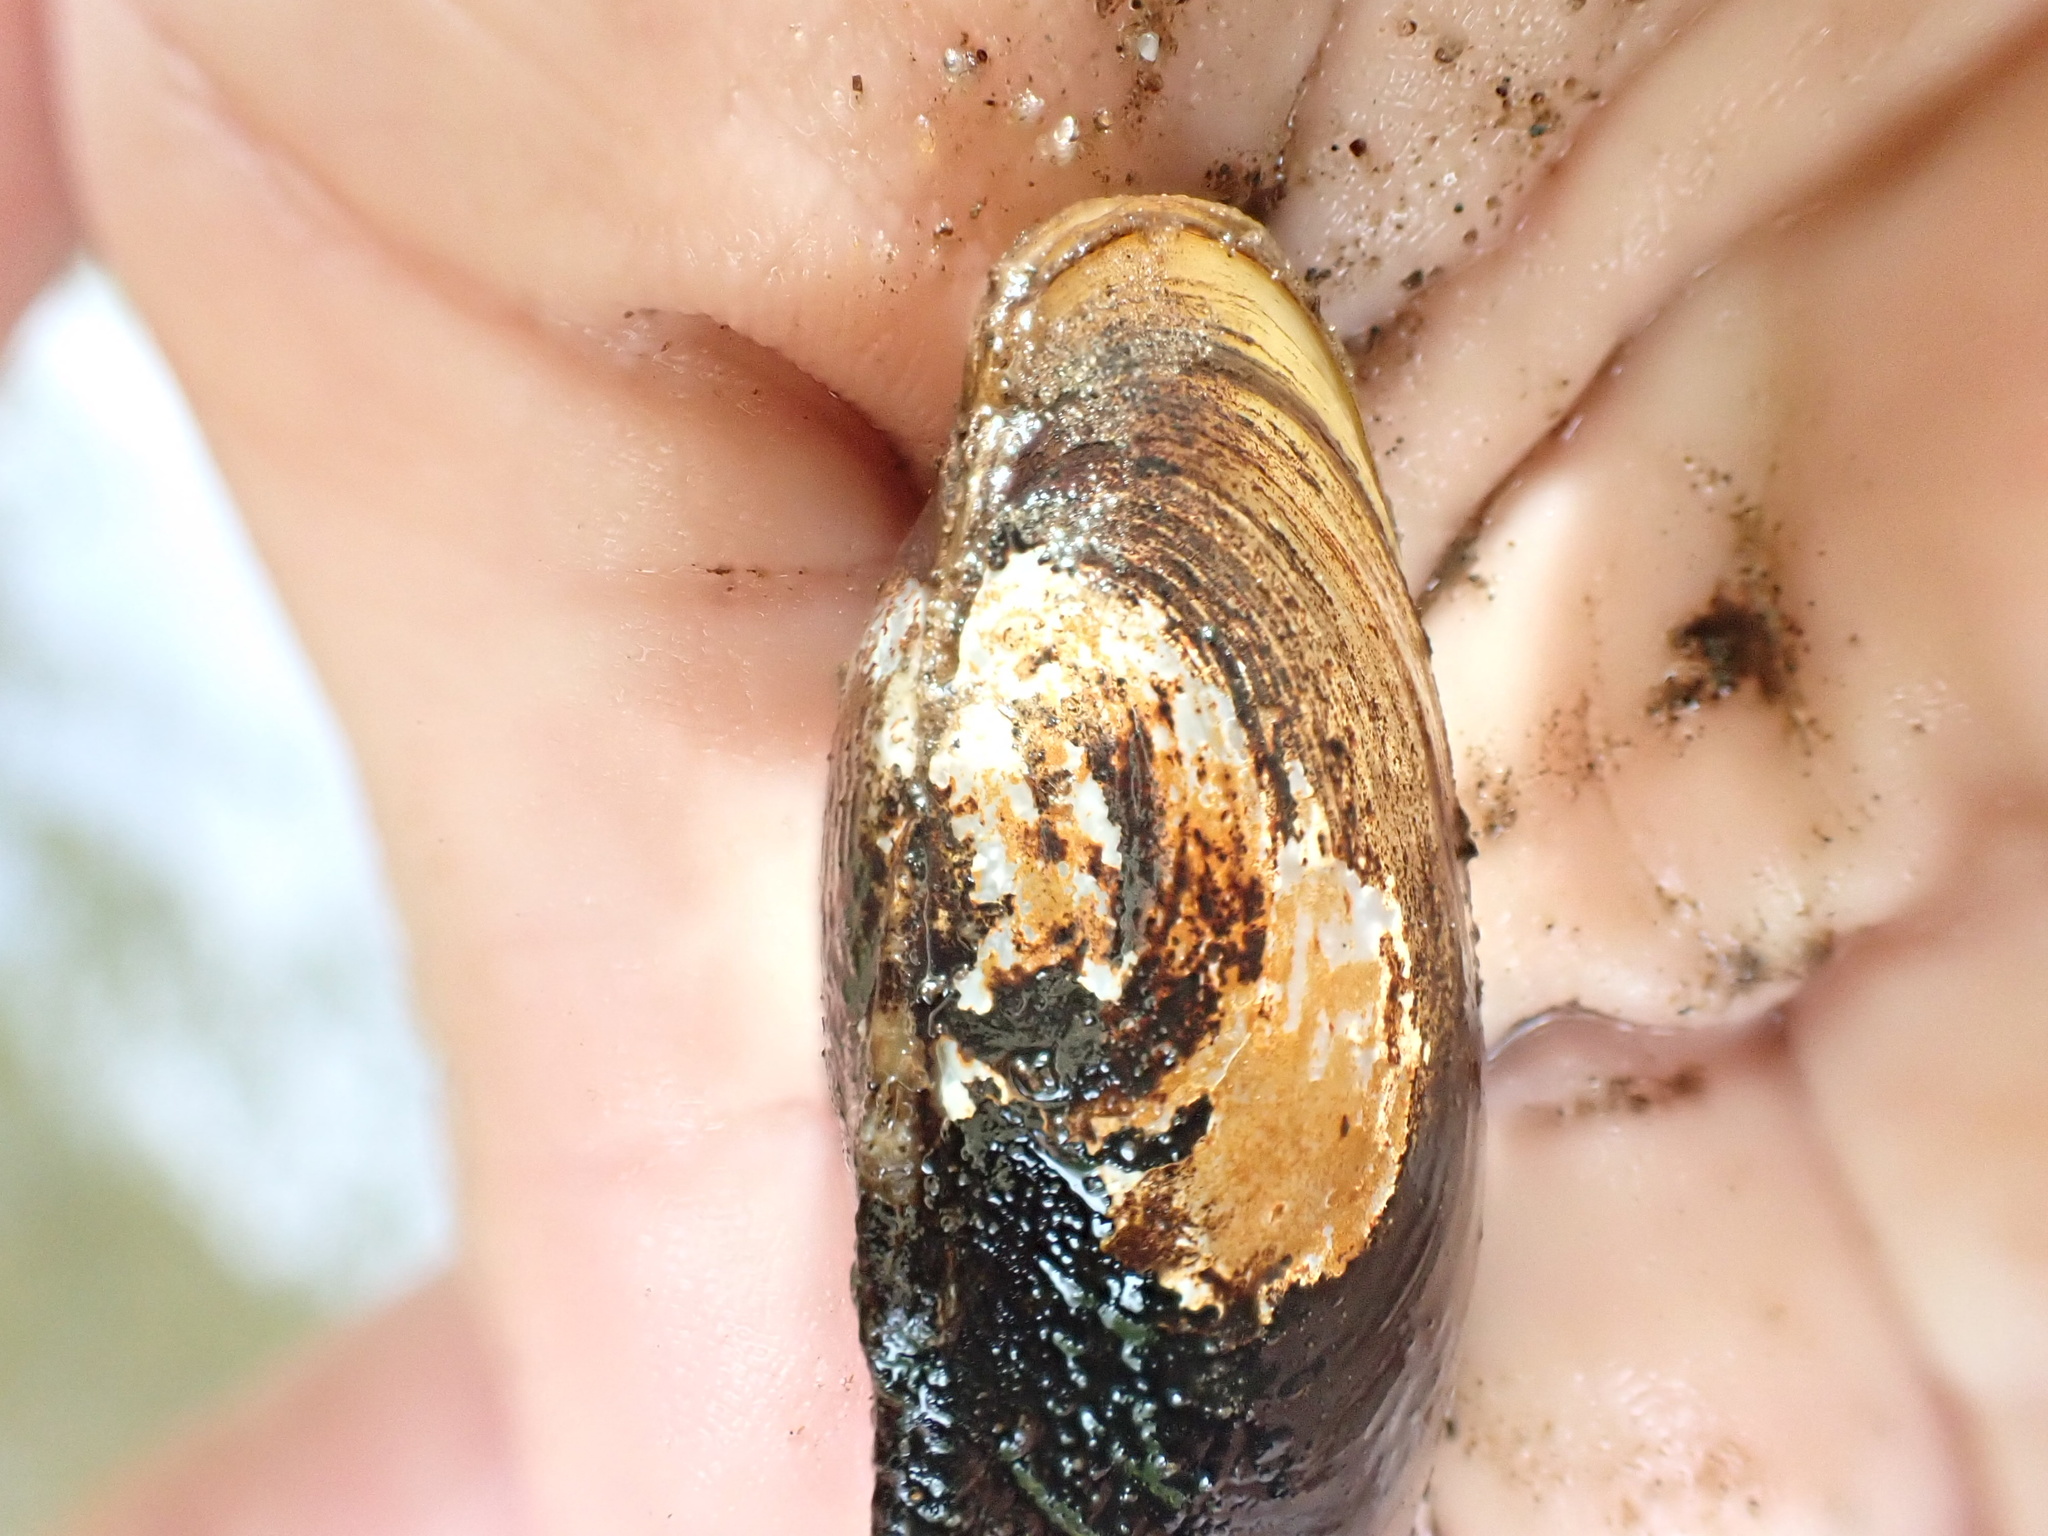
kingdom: Animalia
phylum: Mollusca
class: Bivalvia
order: Unionida
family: Unionidae
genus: Anodonta
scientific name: Anodonta anatina
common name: Duck mussel
